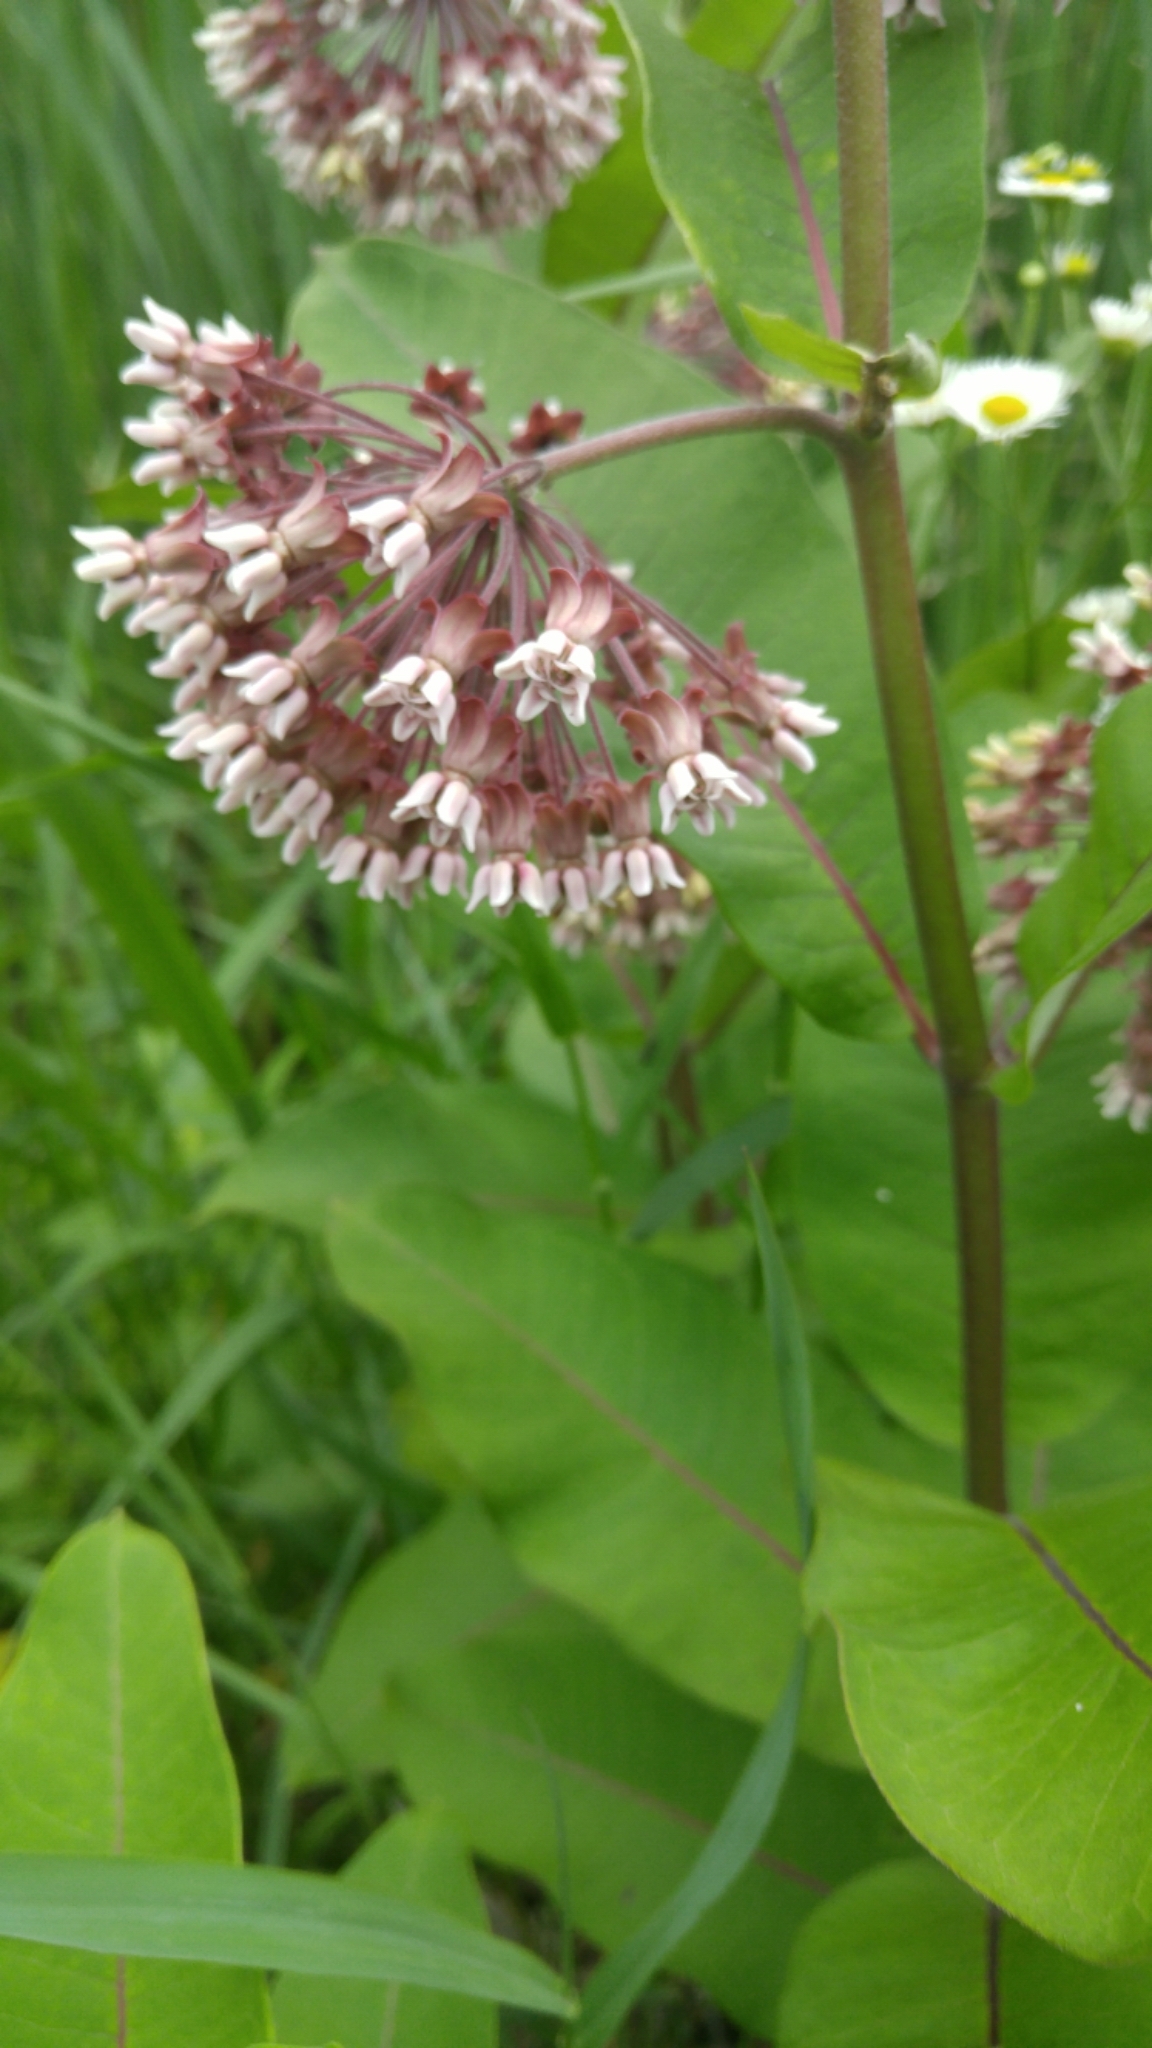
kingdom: Plantae
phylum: Tracheophyta
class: Magnoliopsida
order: Gentianales
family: Apocynaceae
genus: Asclepias
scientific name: Asclepias syriaca
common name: Common milkweed
